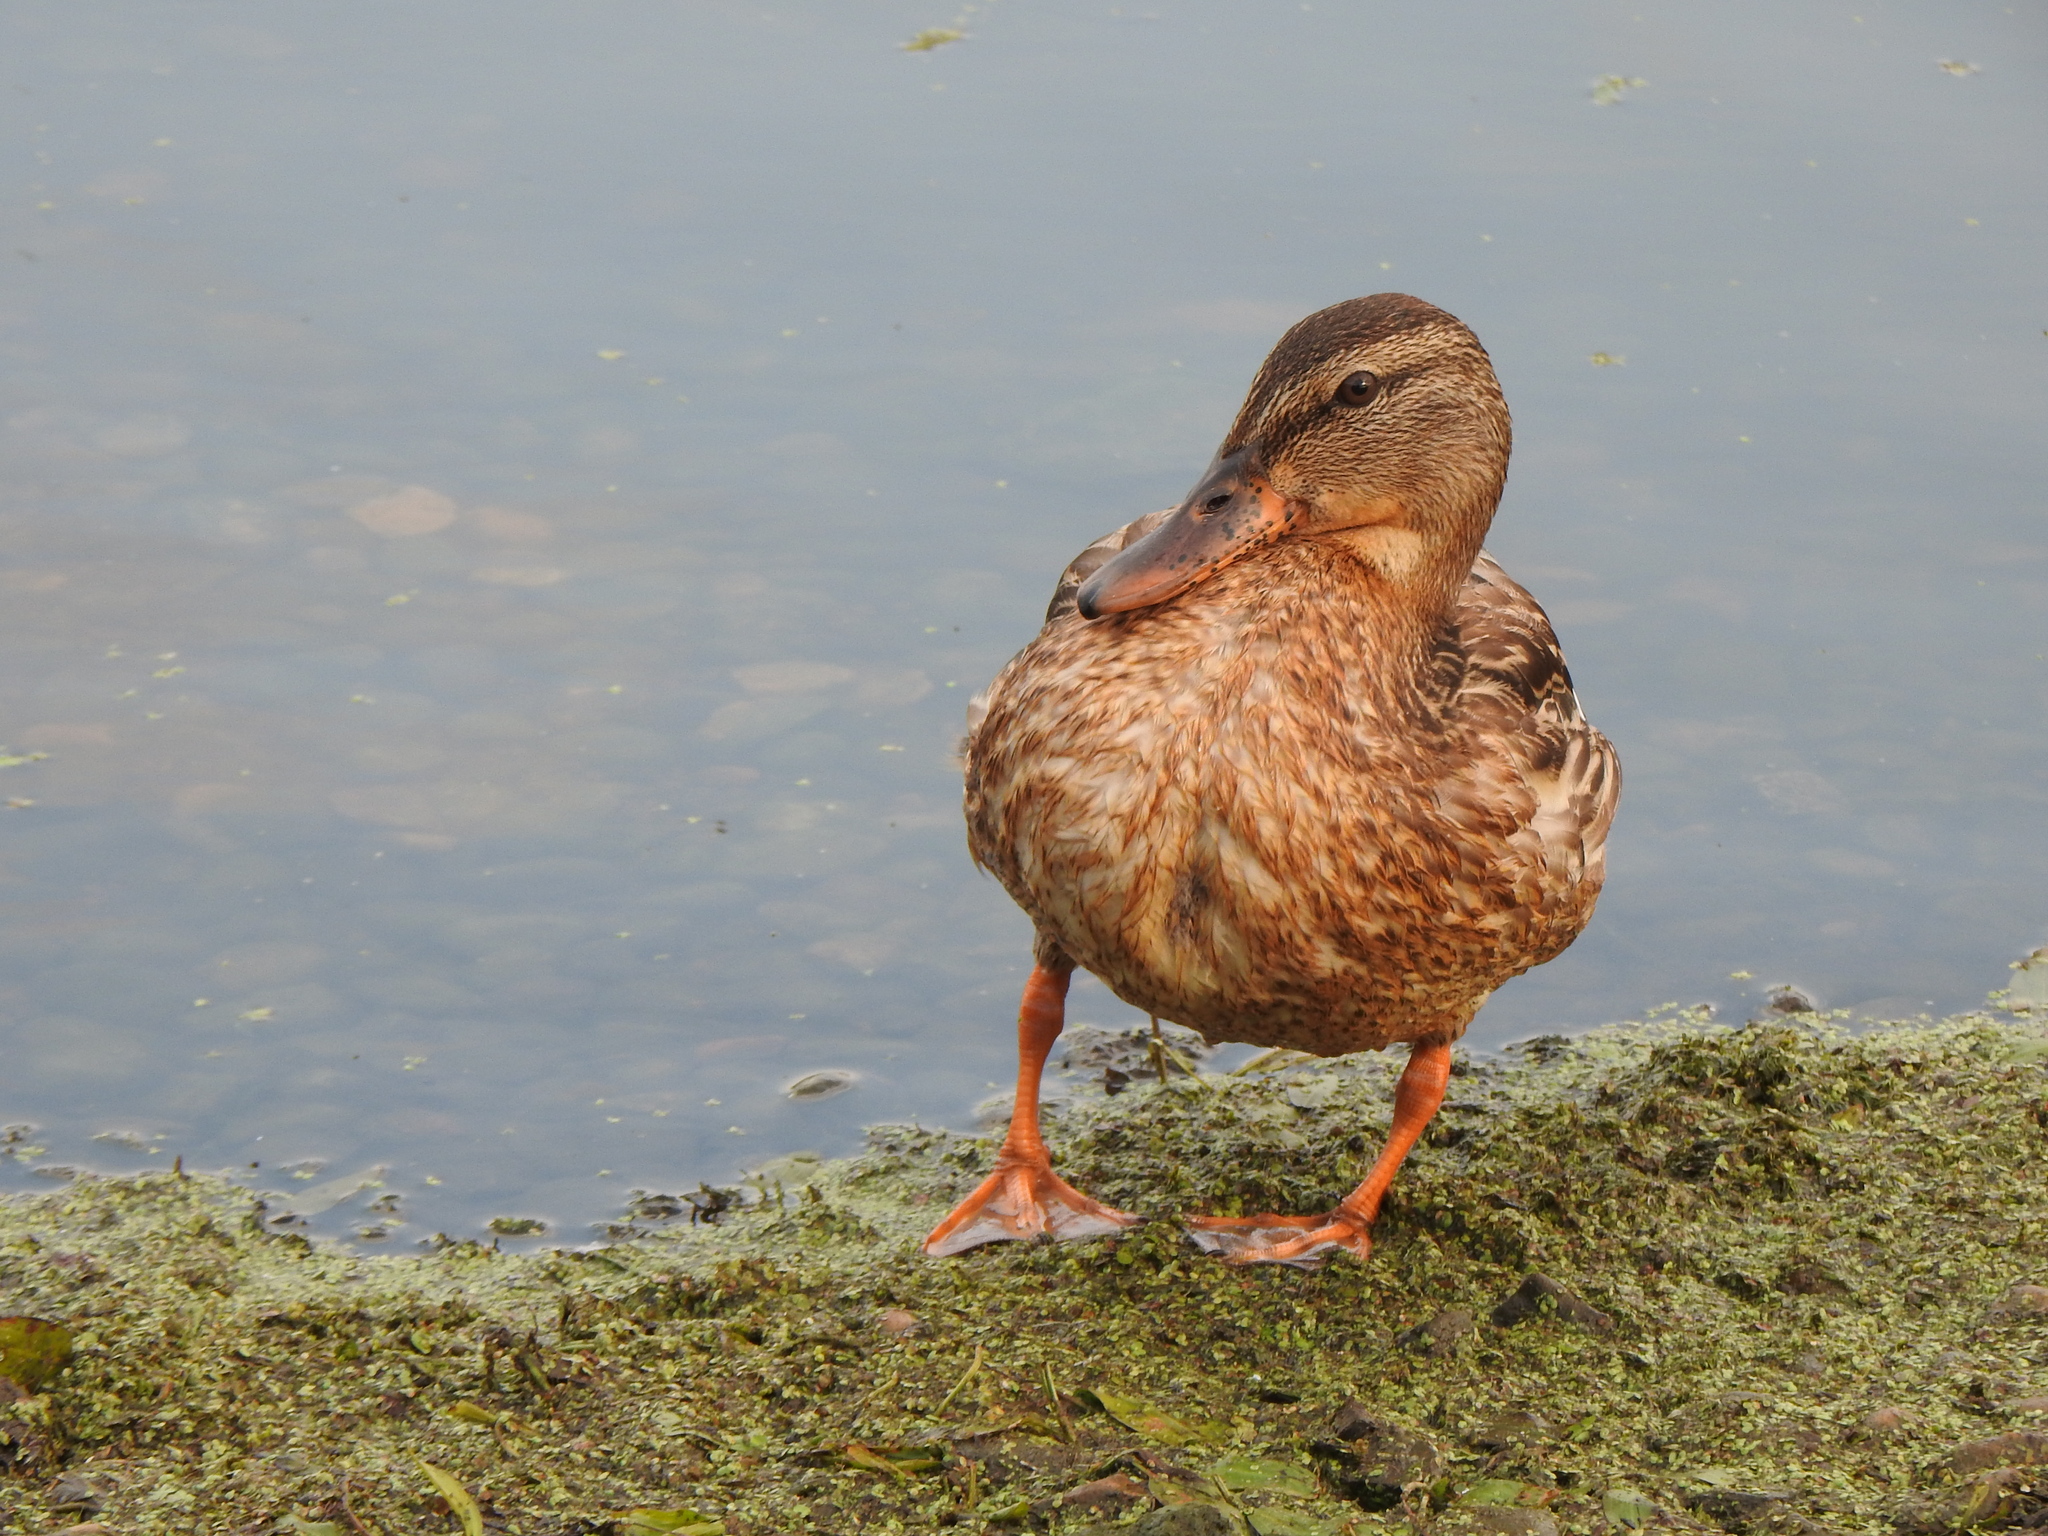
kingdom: Animalia
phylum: Chordata
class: Aves
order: Anseriformes
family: Anatidae
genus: Anas
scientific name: Anas platyrhynchos
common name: Mallard
